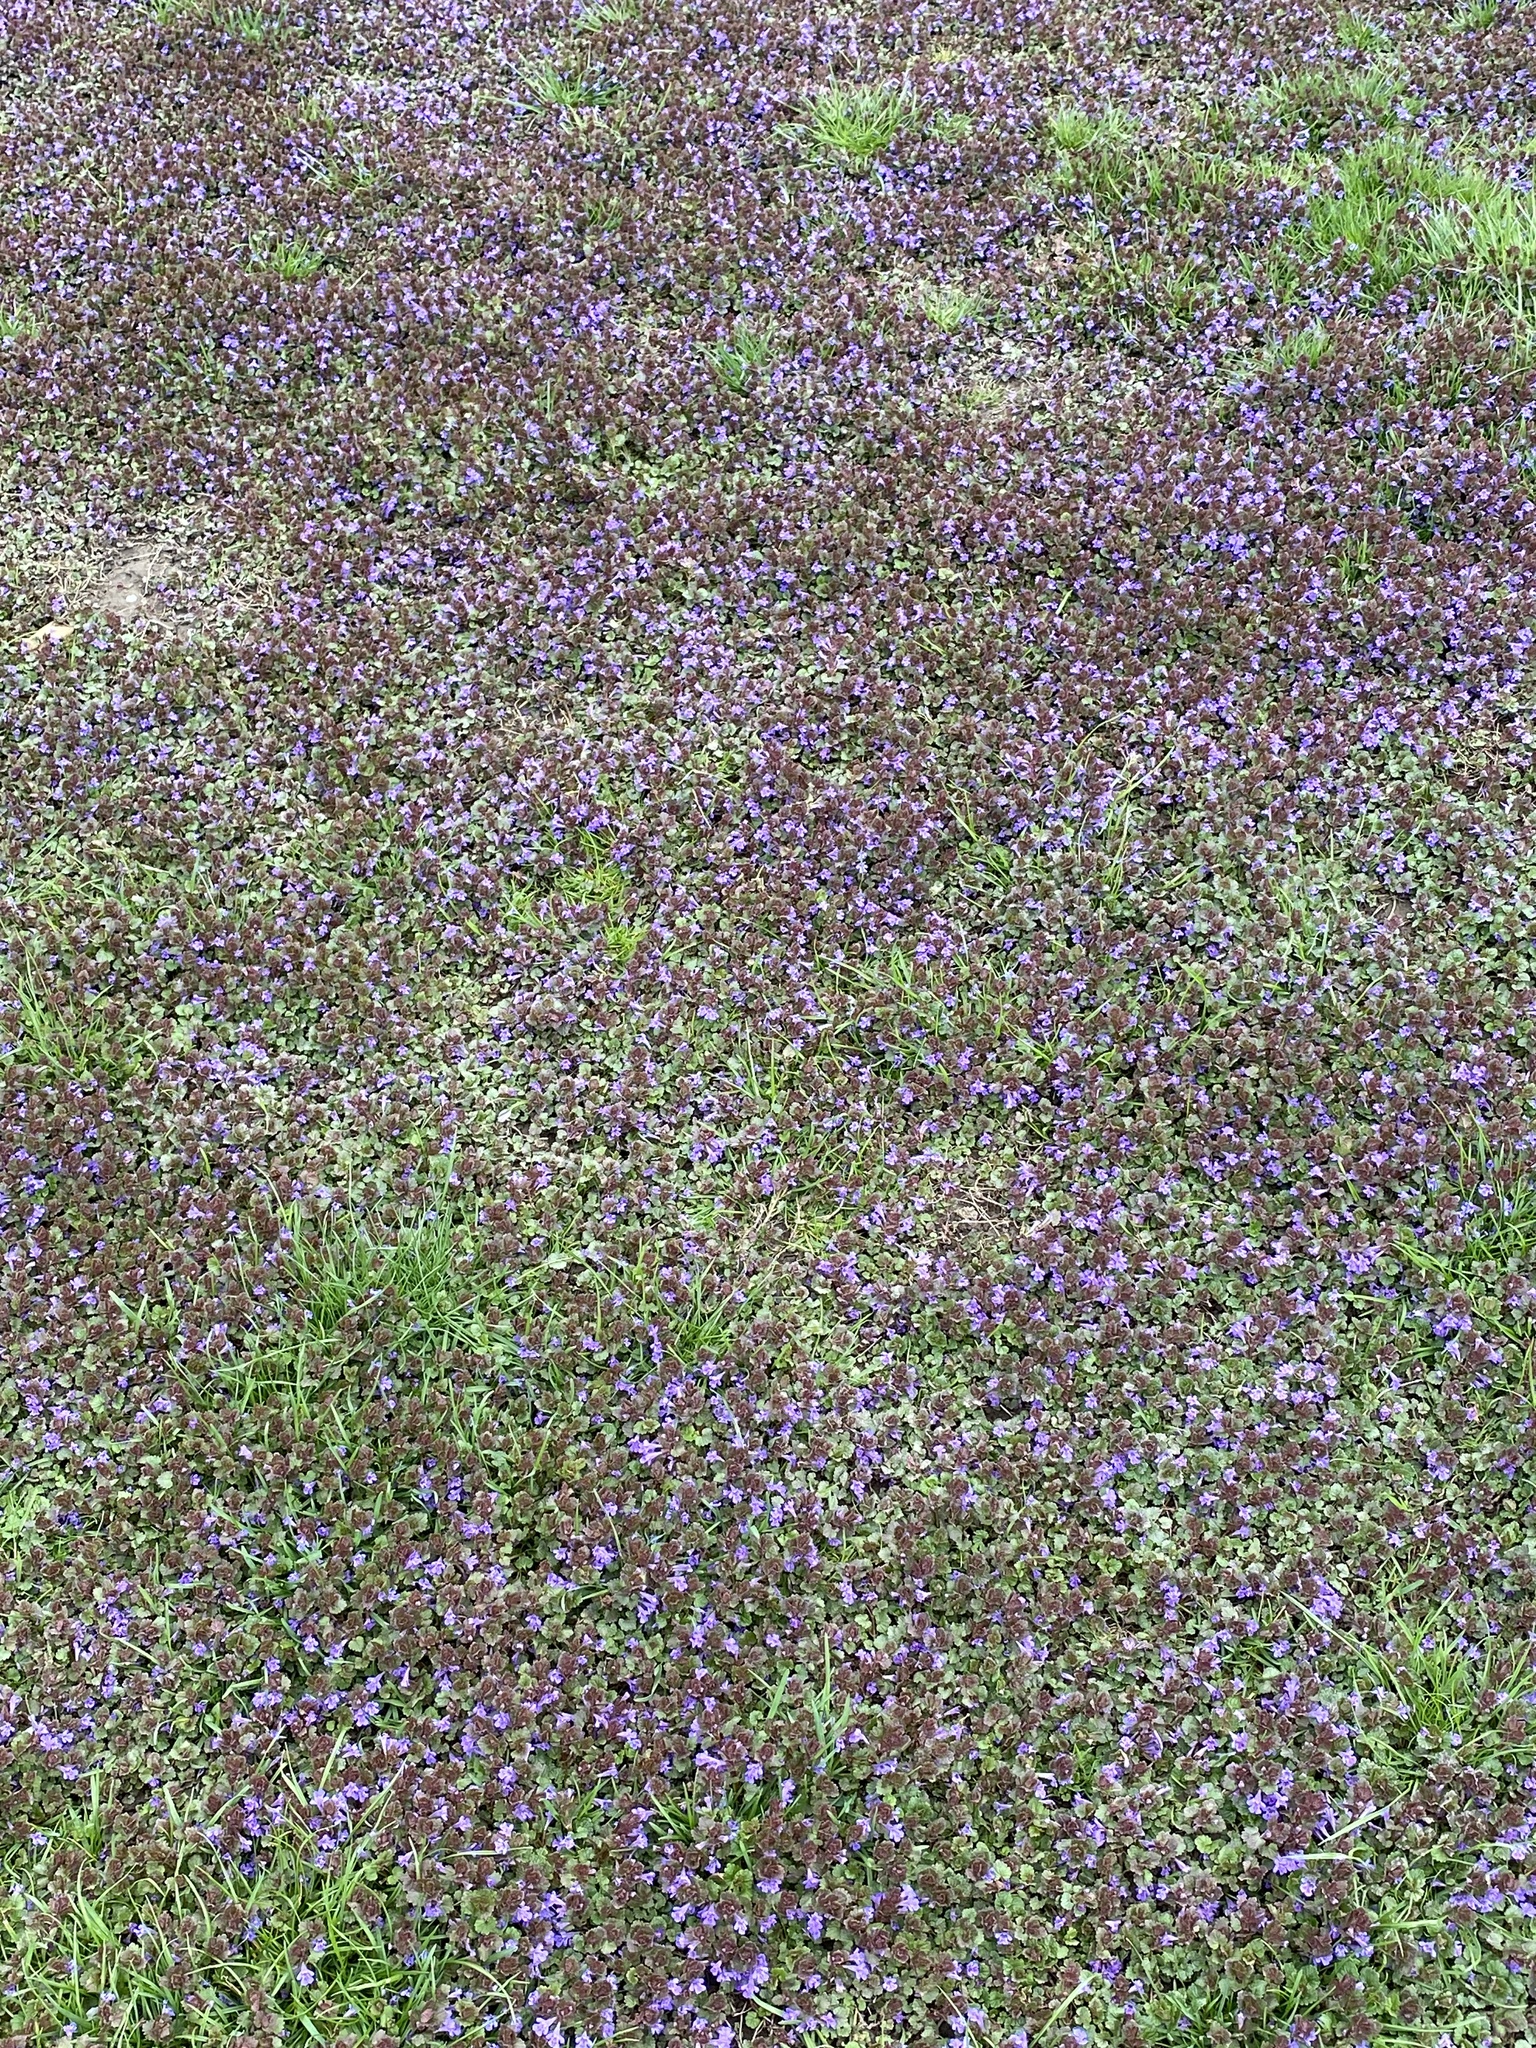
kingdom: Plantae
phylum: Tracheophyta
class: Magnoliopsida
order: Lamiales
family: Lamiaceae
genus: Glechoma
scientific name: Glechoma hederacea
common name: Ground ivy
